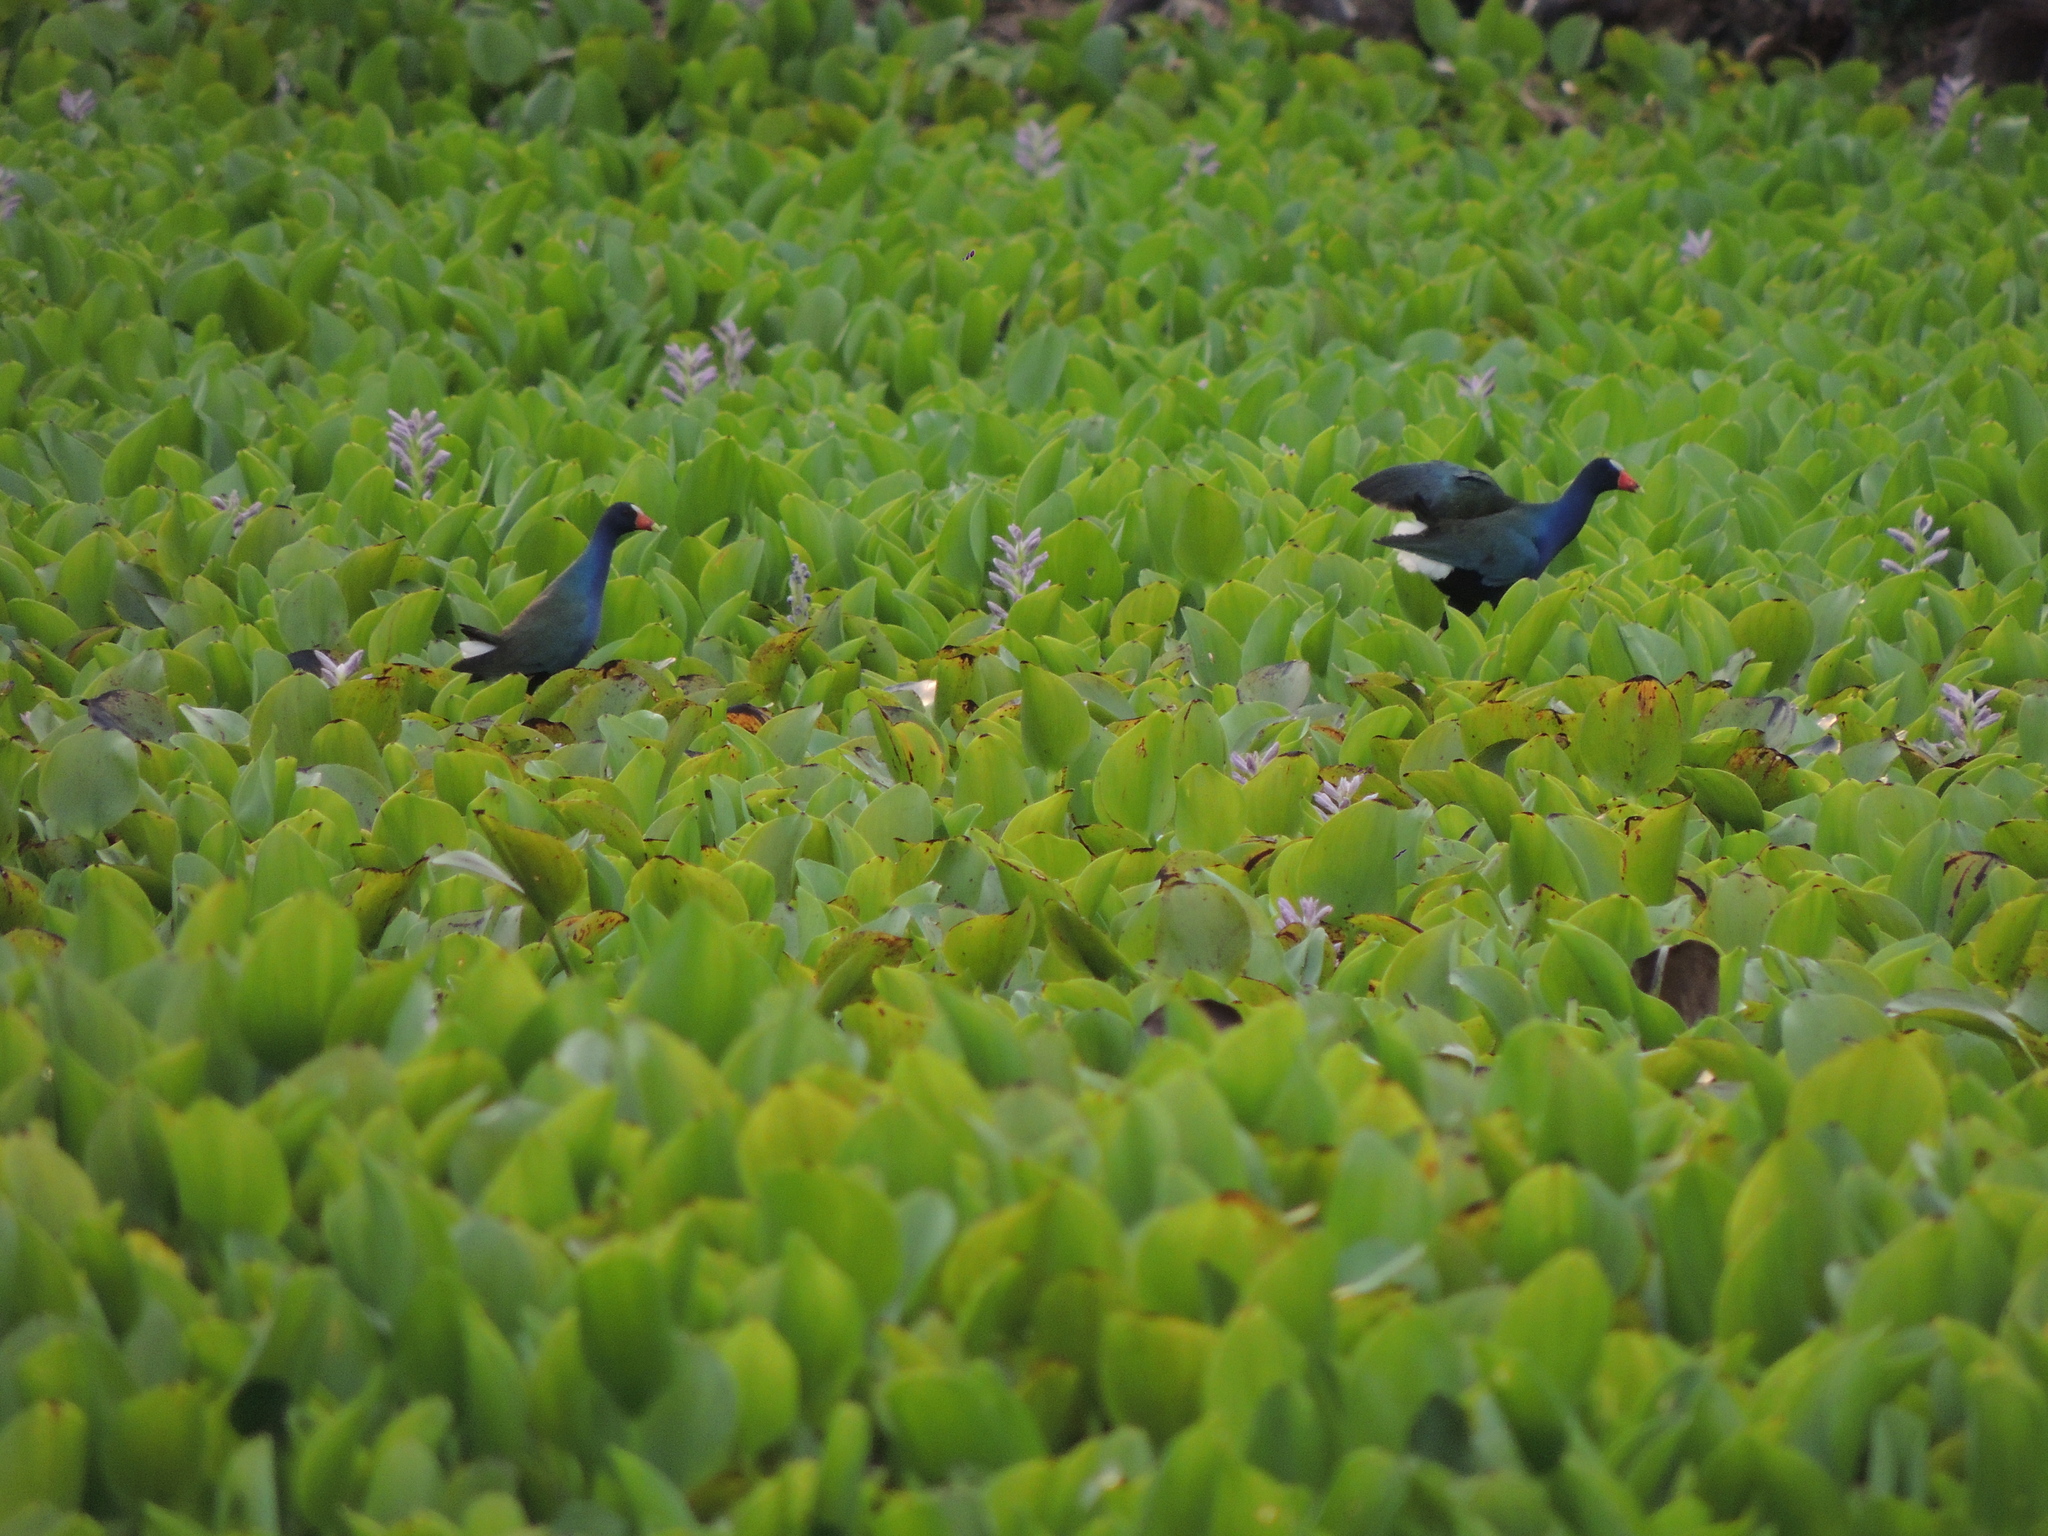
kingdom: Animalia
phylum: Chordata
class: Aves
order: Gruiformes
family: Rallidae
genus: Porphyrio
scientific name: Porphyrio martinica
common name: Purple gallinule
